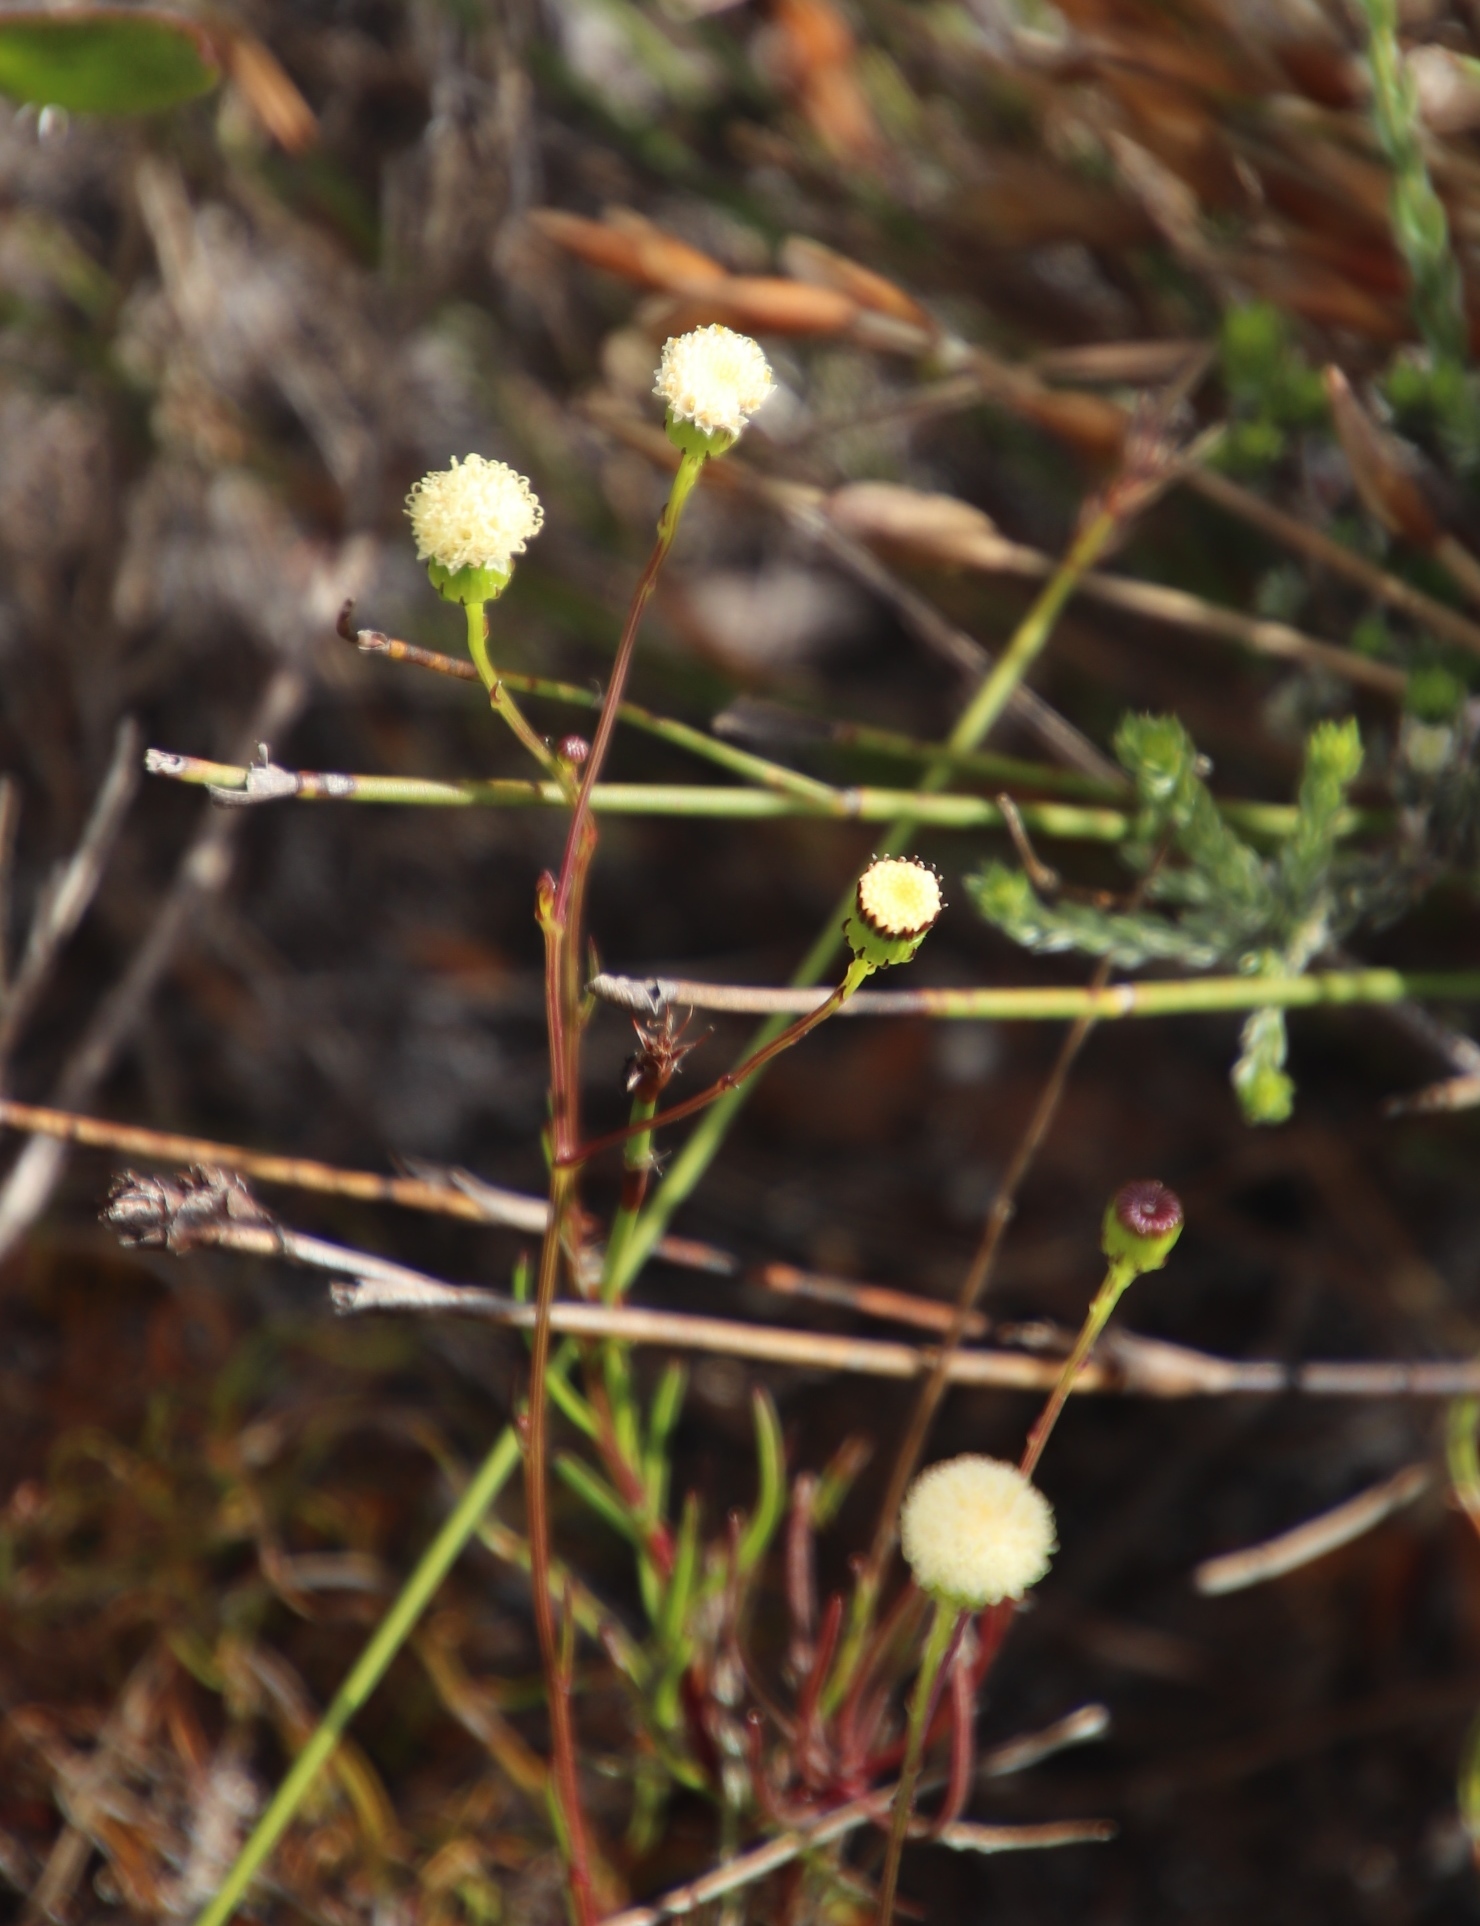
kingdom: Plantae
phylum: Tracheophyta
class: Magnoliopsida
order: Asterales
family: Asteraceae
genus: Senecio
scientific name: Senecio paniculatus
